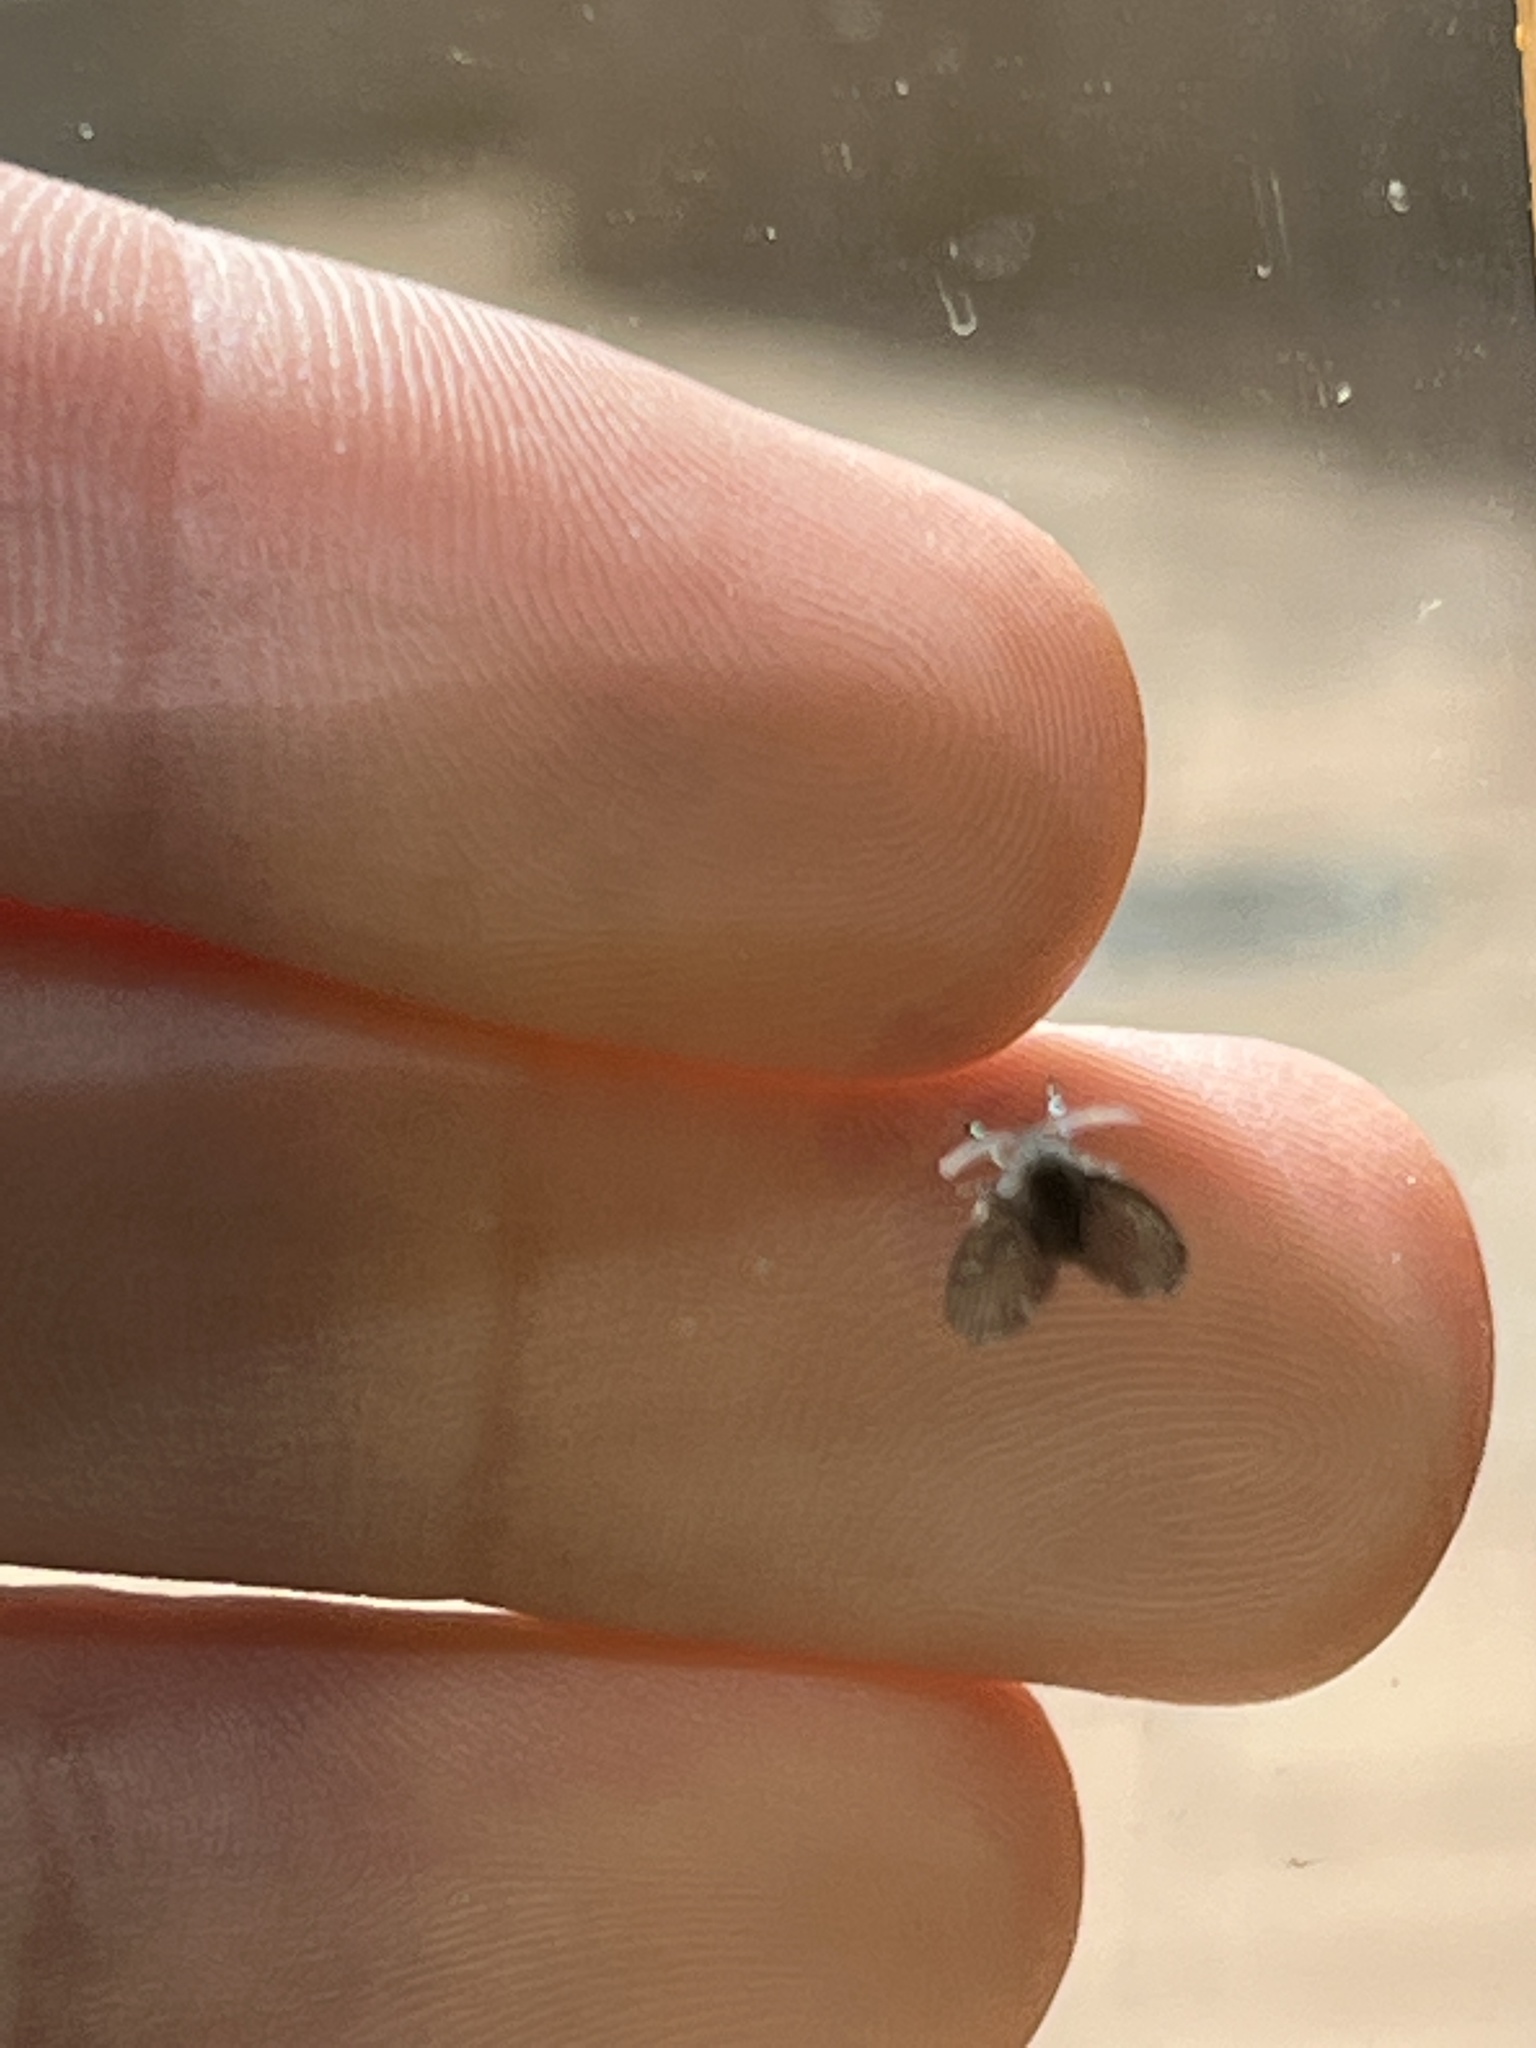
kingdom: Animalia
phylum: Arthropoda
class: Insecta
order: Diptera
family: Psychodidae
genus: Clogmia
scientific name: Clogmia albipunctatus
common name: White-spotted moth fly
